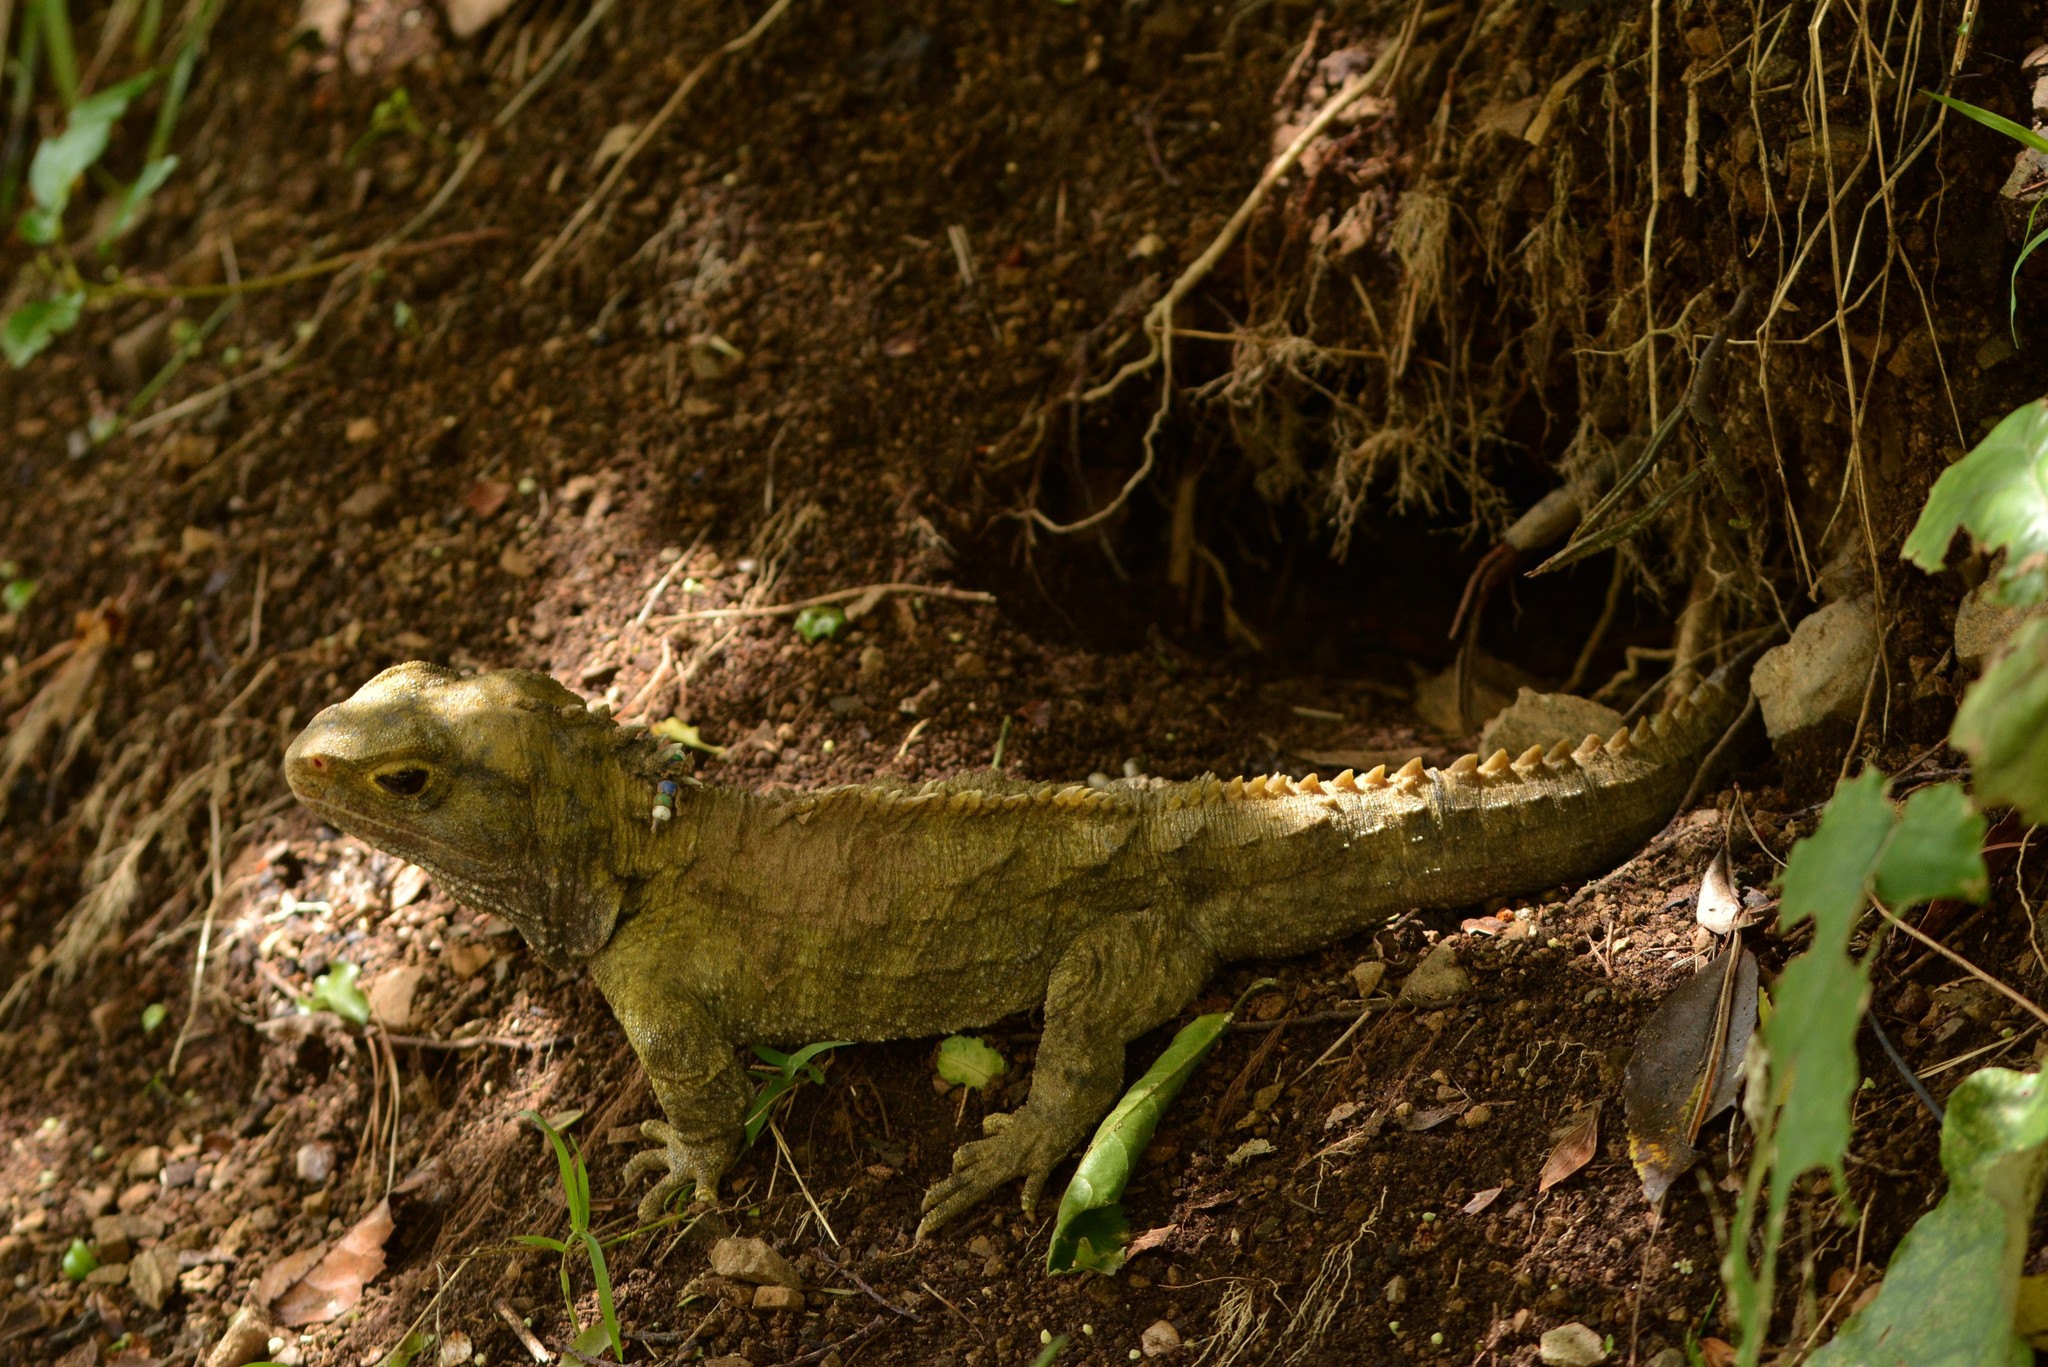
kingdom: Animalia
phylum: Chordata
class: Sphenodontia
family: Sphenodontidae
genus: Sphenodon
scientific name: Sphenodon punctatus
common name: Tuatara
